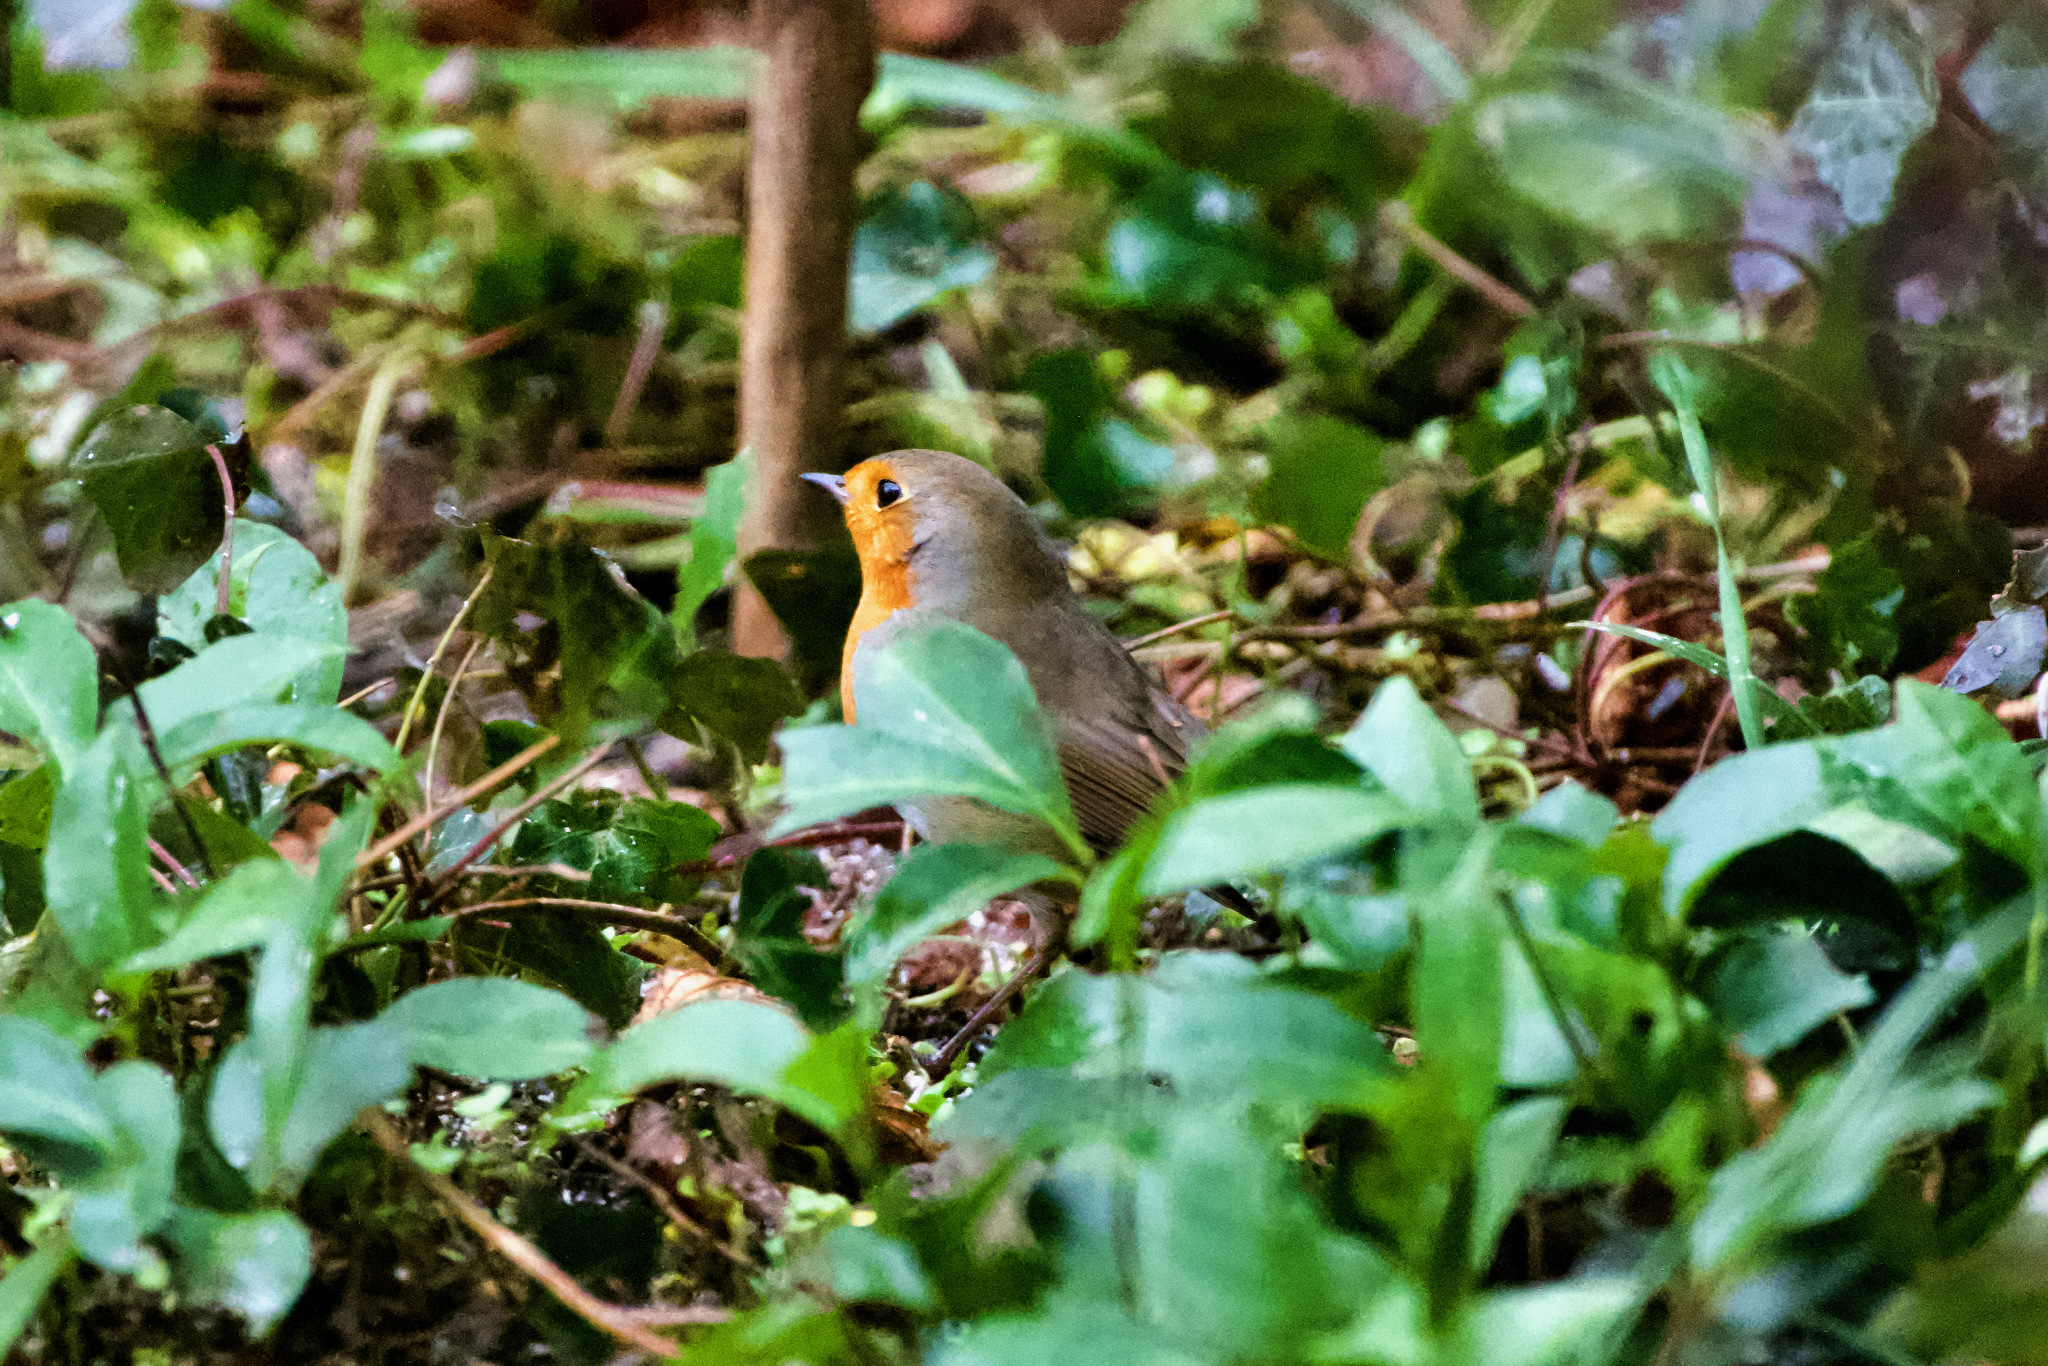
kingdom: Animalia
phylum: Chordata
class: Aves
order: Passeriformes
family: Muscicapidae
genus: Erithacus
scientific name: Erithacus rubecula
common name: European robin
